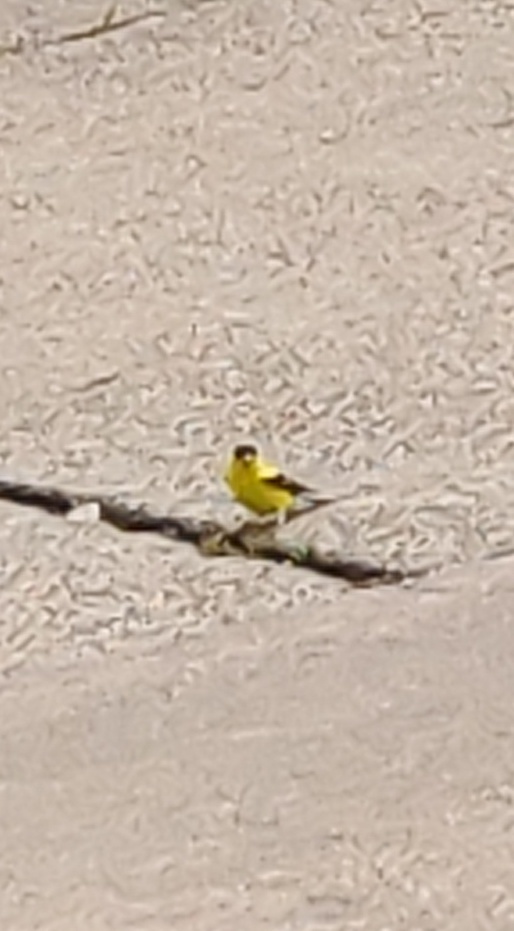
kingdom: Animalia
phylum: Chordata
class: Aves
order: Passeriformes
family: Fringillidae
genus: Spinus
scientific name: Spinus tristis
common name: American goldfinch
